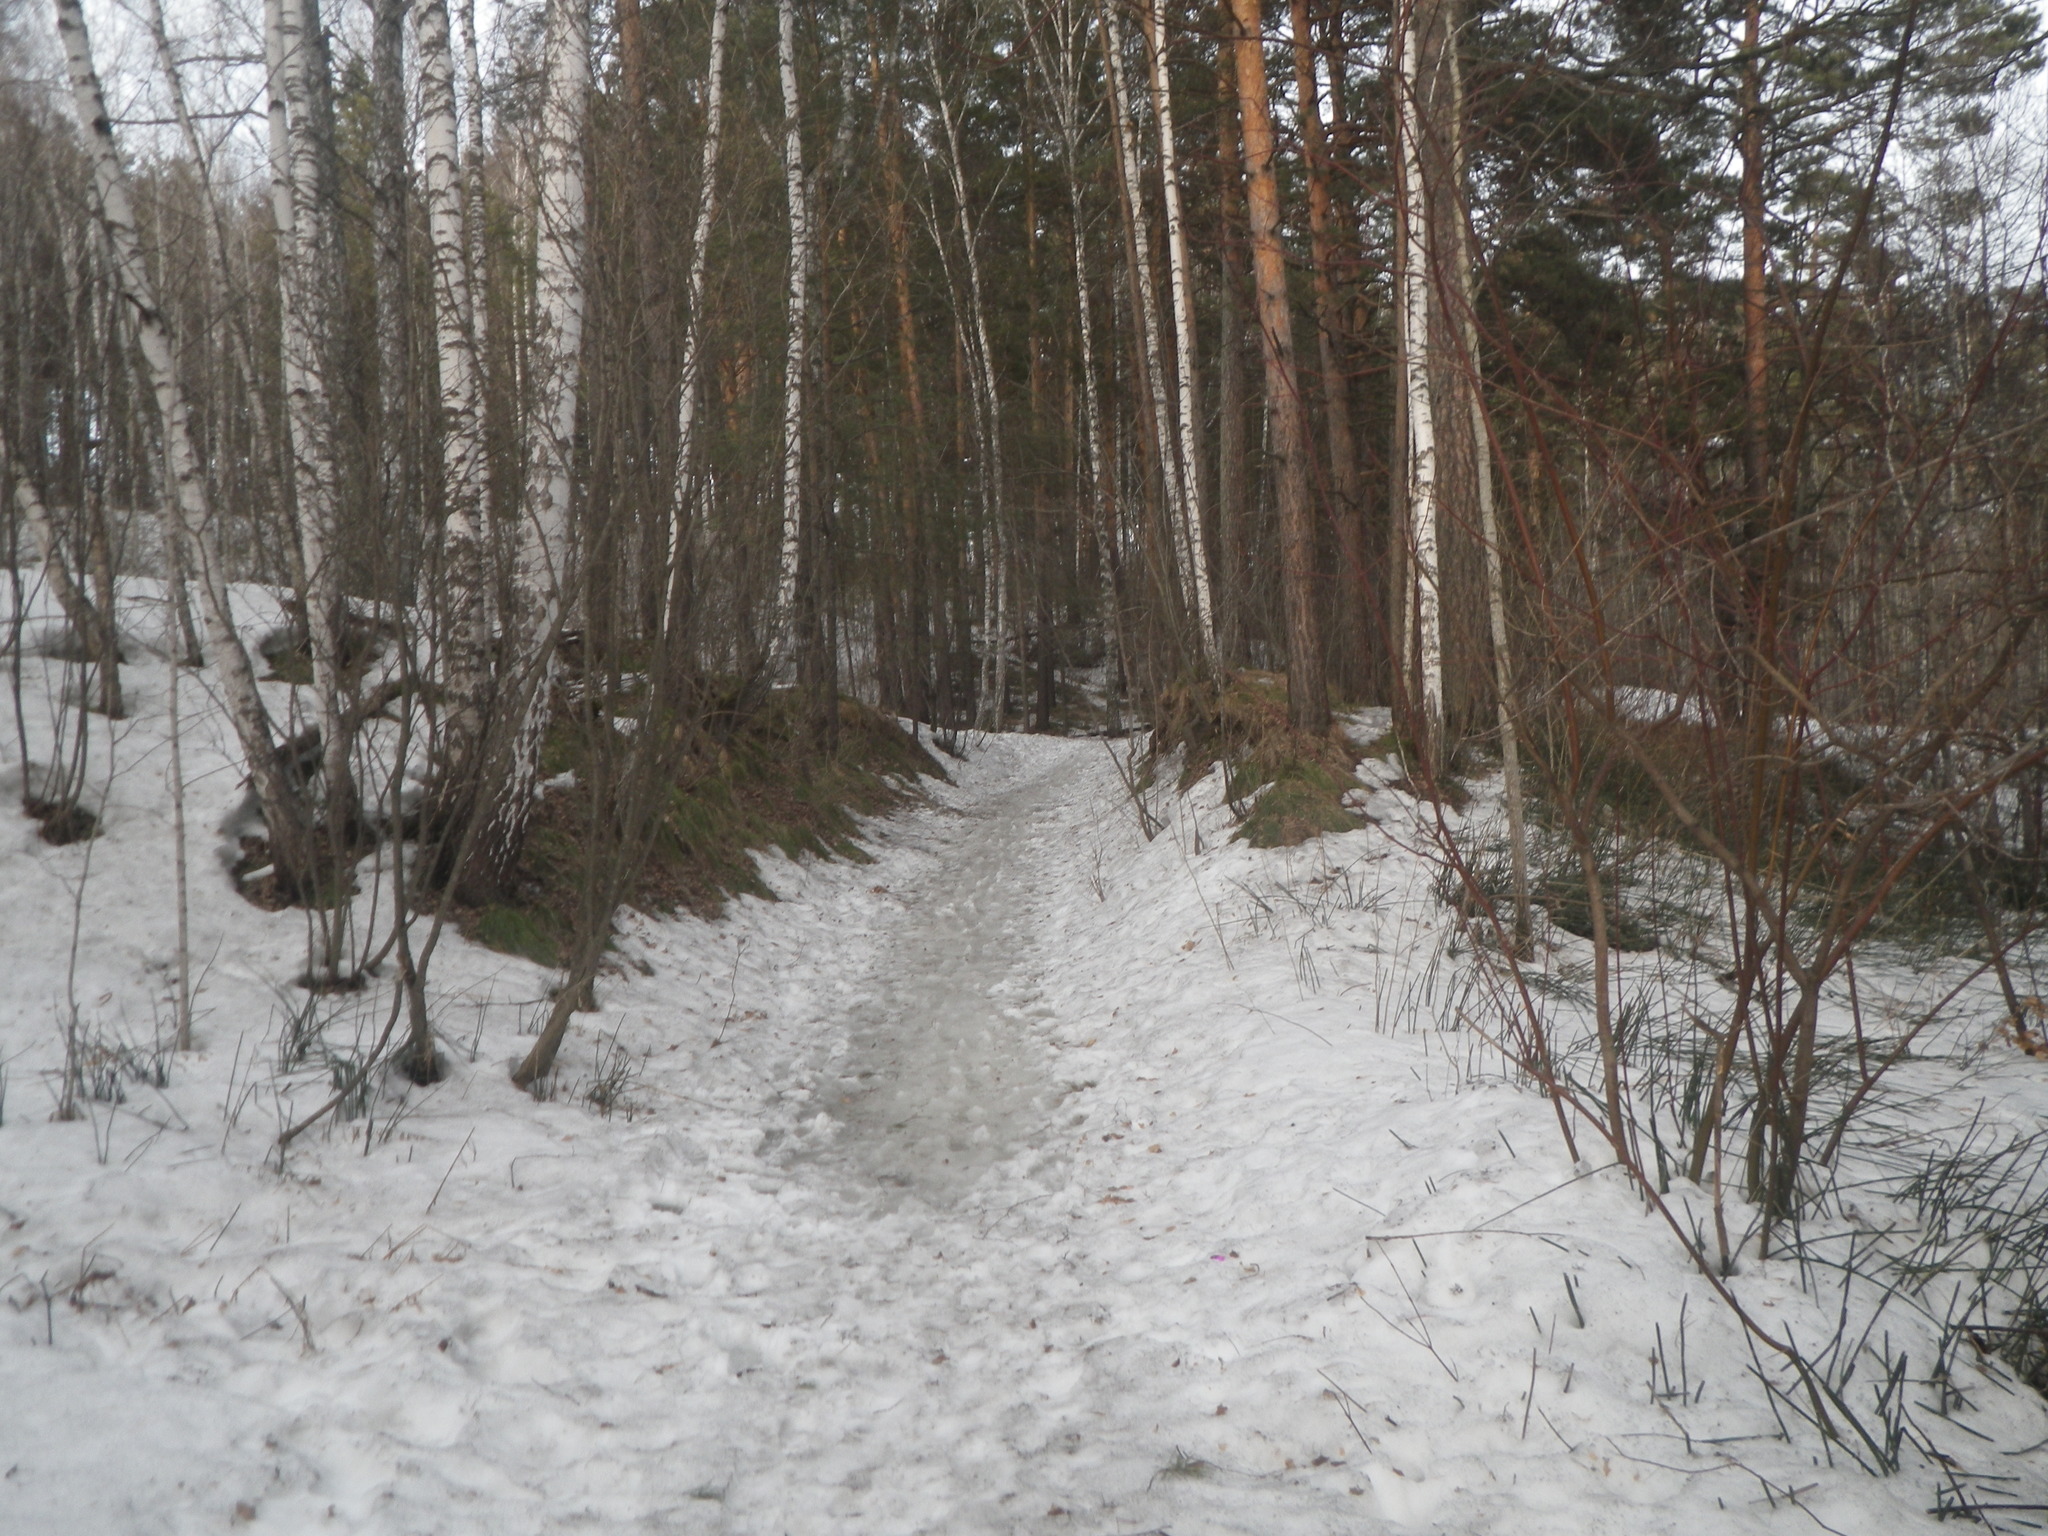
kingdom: Plantae
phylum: Tracheophyta
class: Pinopsida
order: Pinales
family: Pinaceae
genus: Pinus
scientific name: Pinus sylvestris
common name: Scots pine
